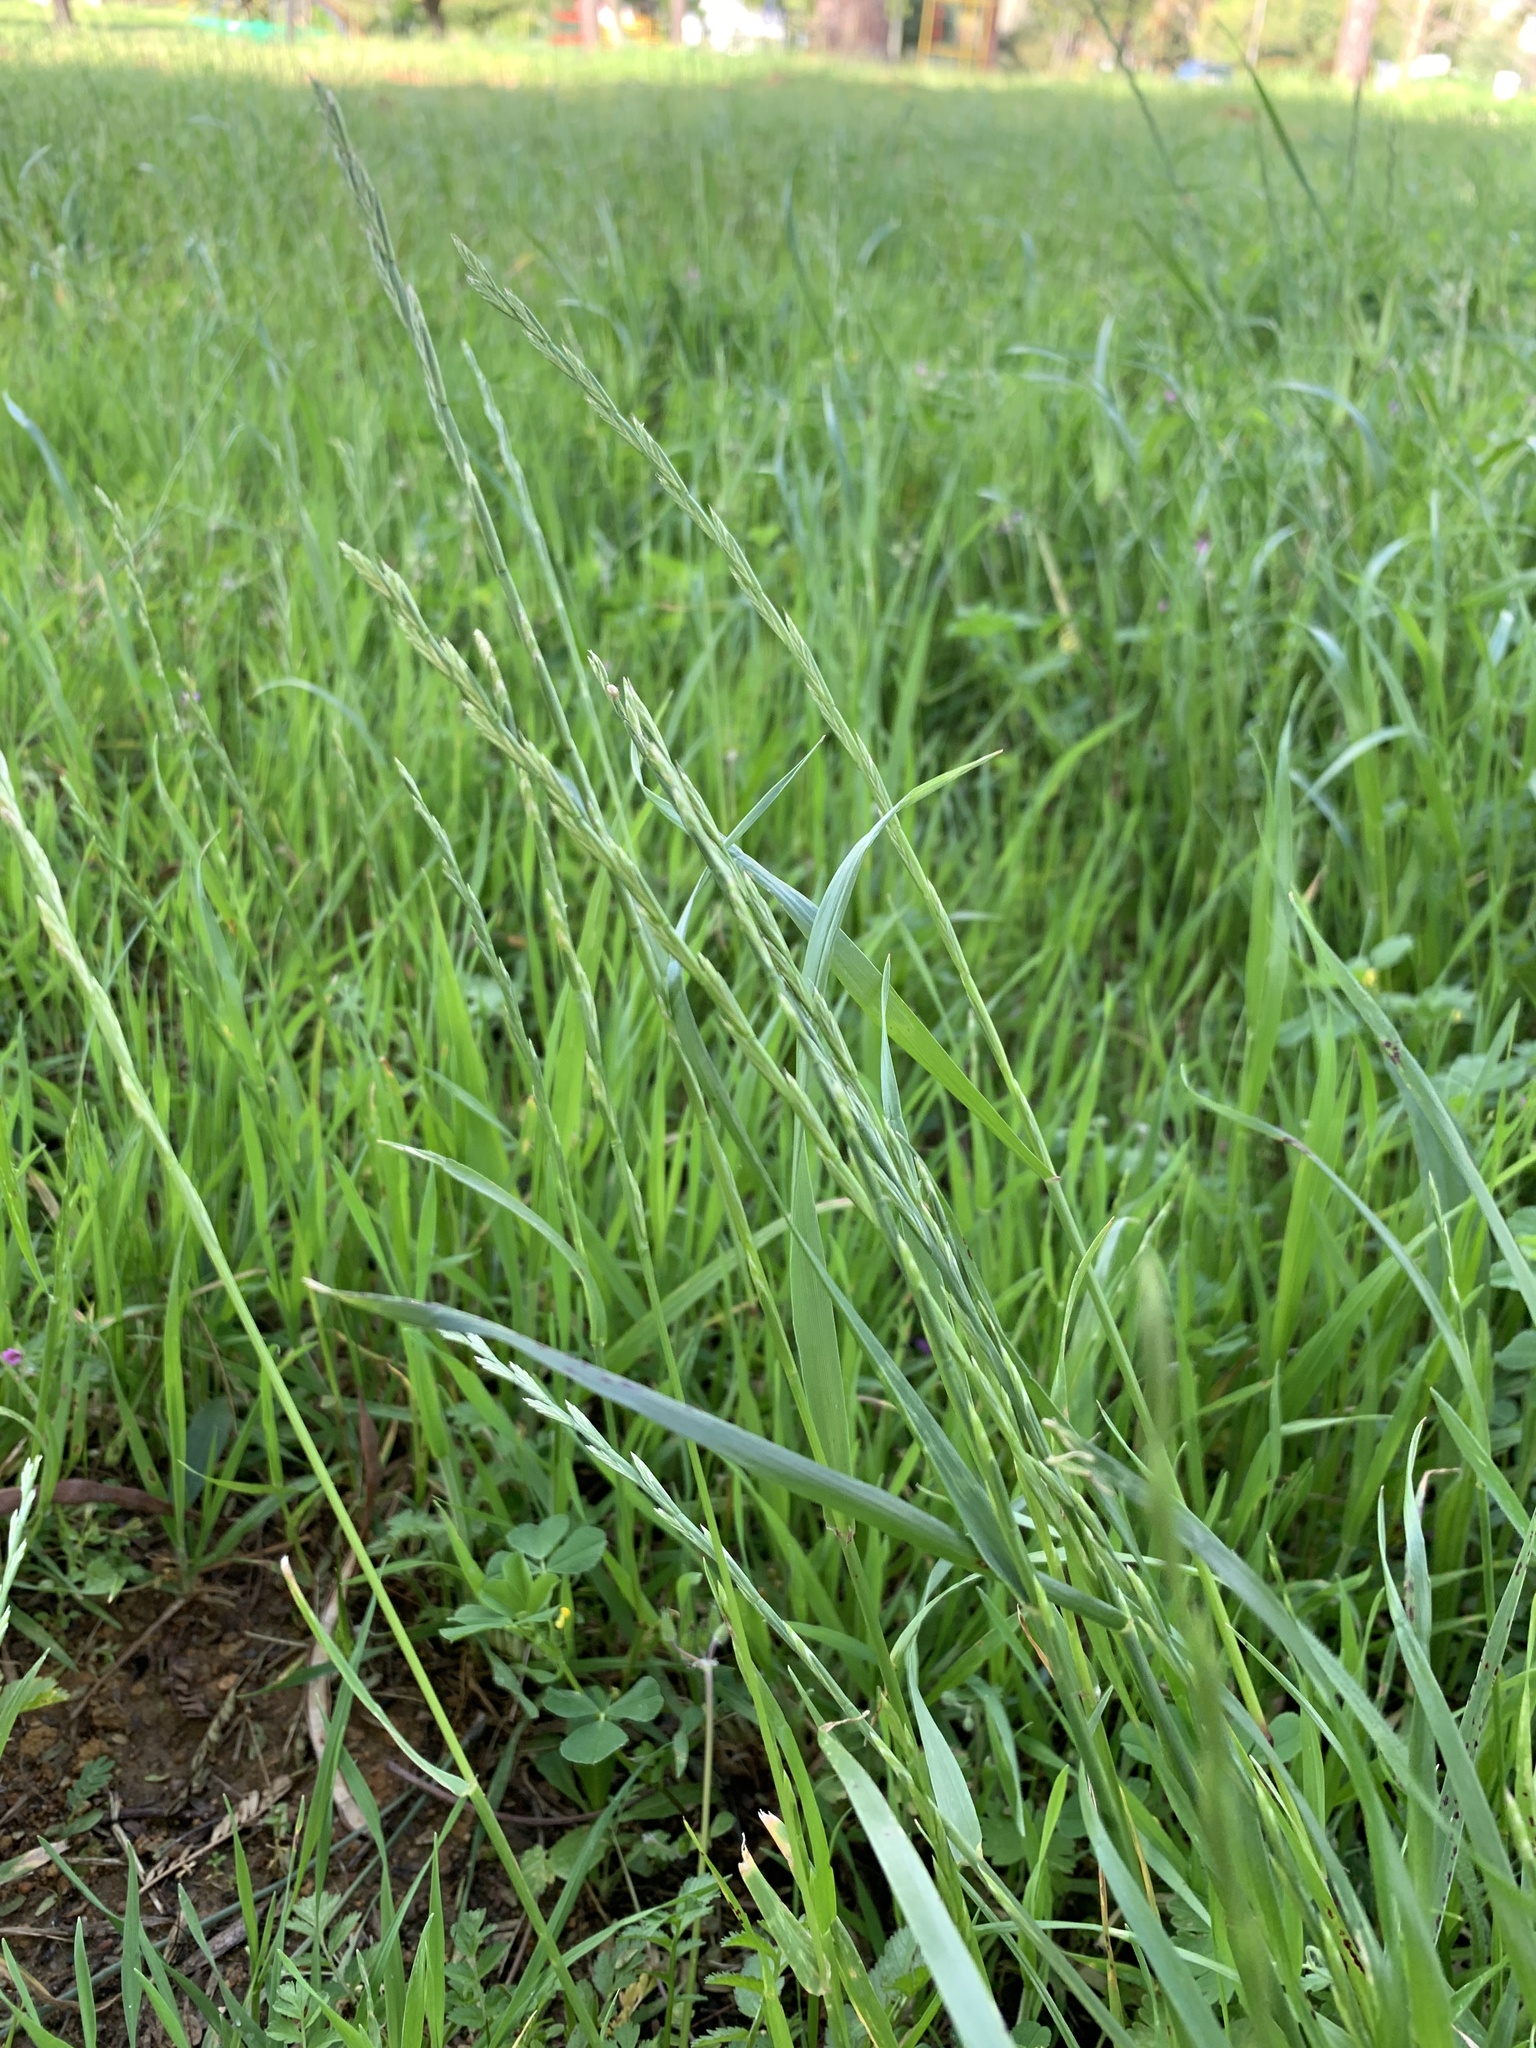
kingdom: Plantae
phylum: Tracheophyta
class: Liliopsida
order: Poales
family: Poaceae
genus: Lolium
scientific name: Lolium perenne
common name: Perennial ryegrass
